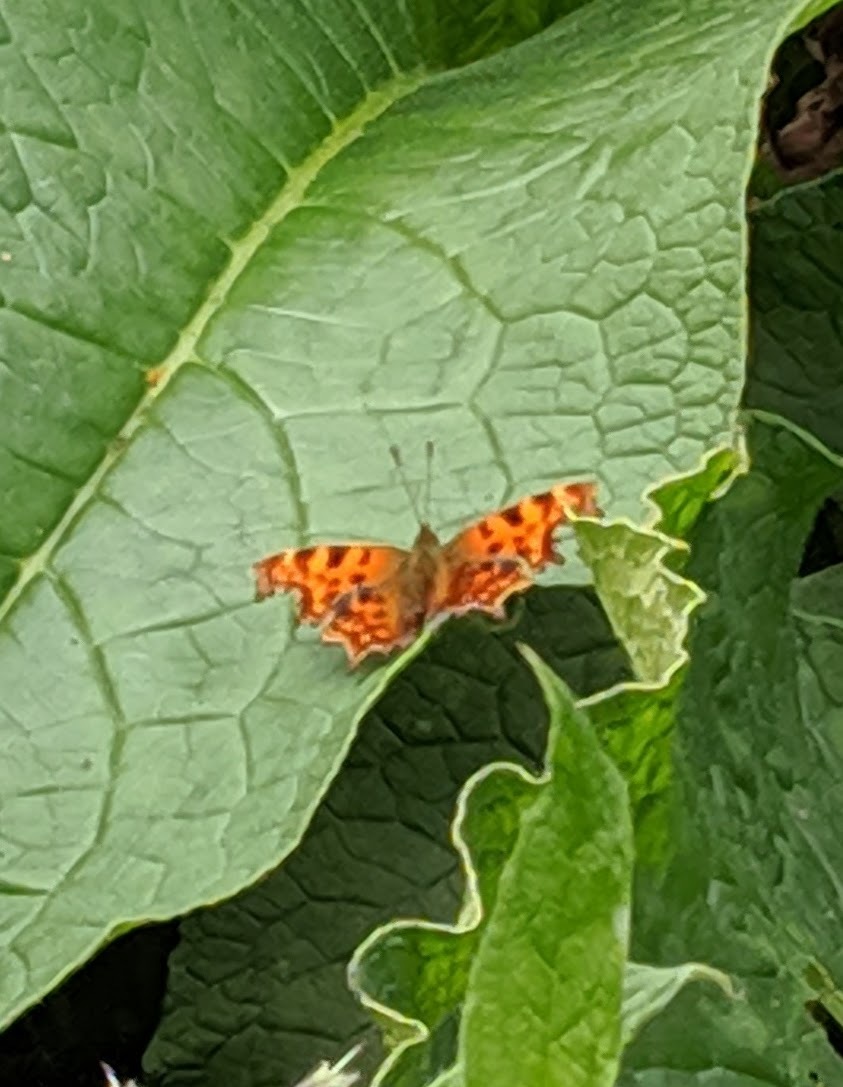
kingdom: Animalia
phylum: Arthropoda
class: Insecta
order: Lepidoptera
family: Nymphalidae
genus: Polygonia
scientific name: Polygonia c-album
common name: Comma
